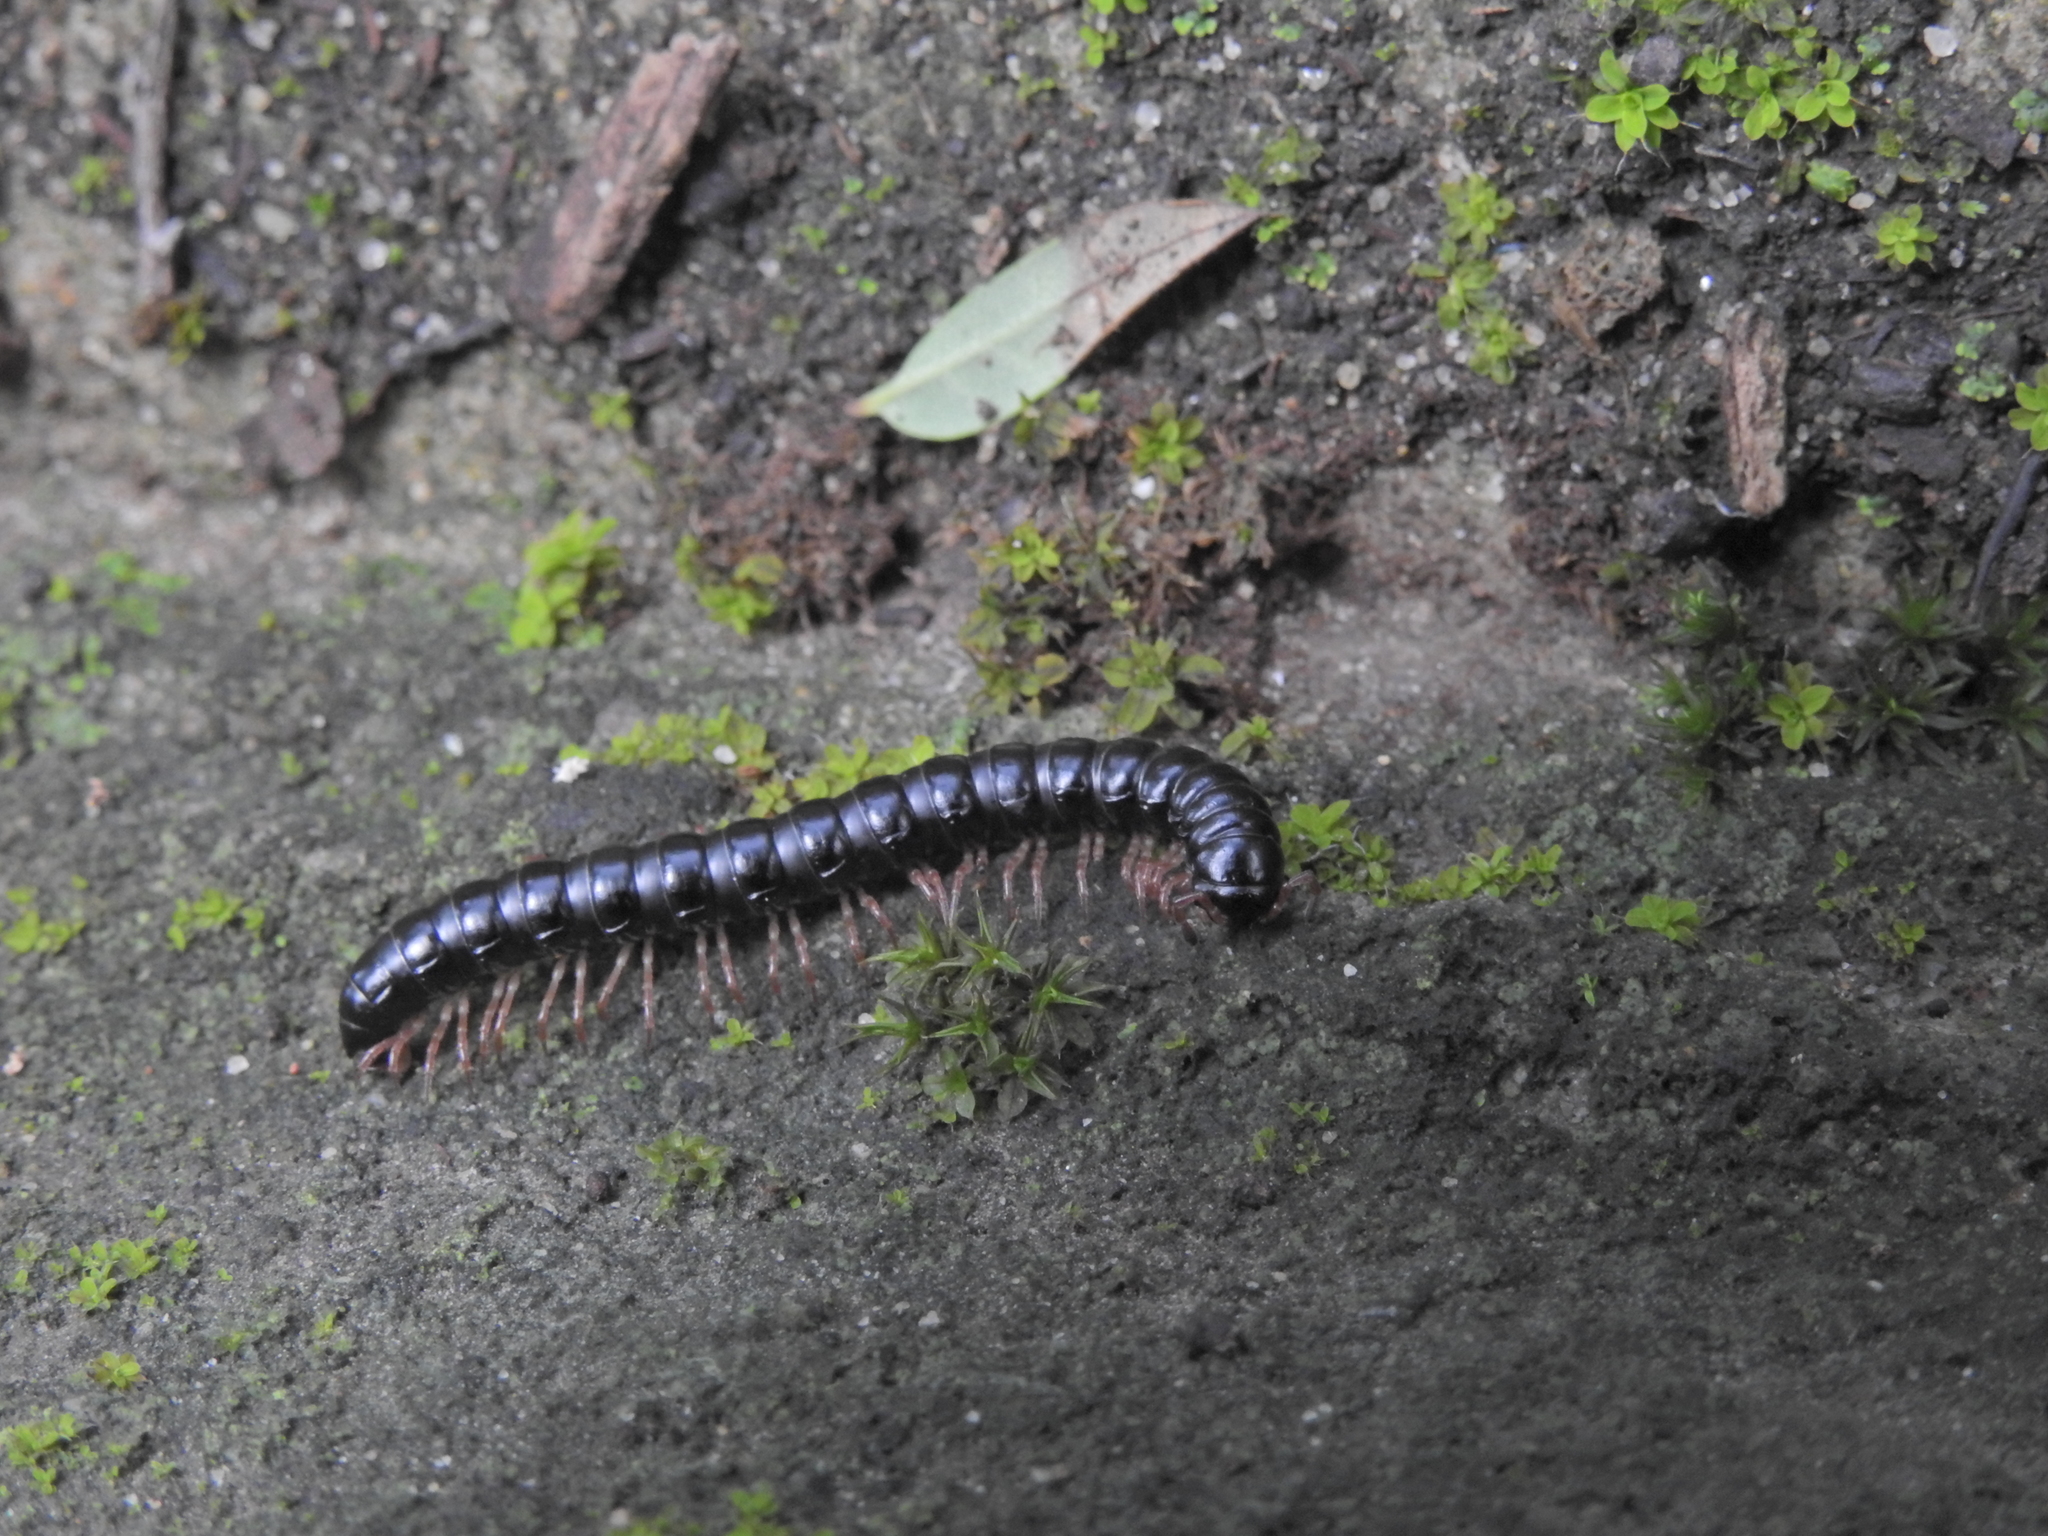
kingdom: Animalia
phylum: Arthropoda
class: Diplopoda
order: Polydesmida
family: Paradoxosomatidae
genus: Heterocladosoma
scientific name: Heterocladosoma
